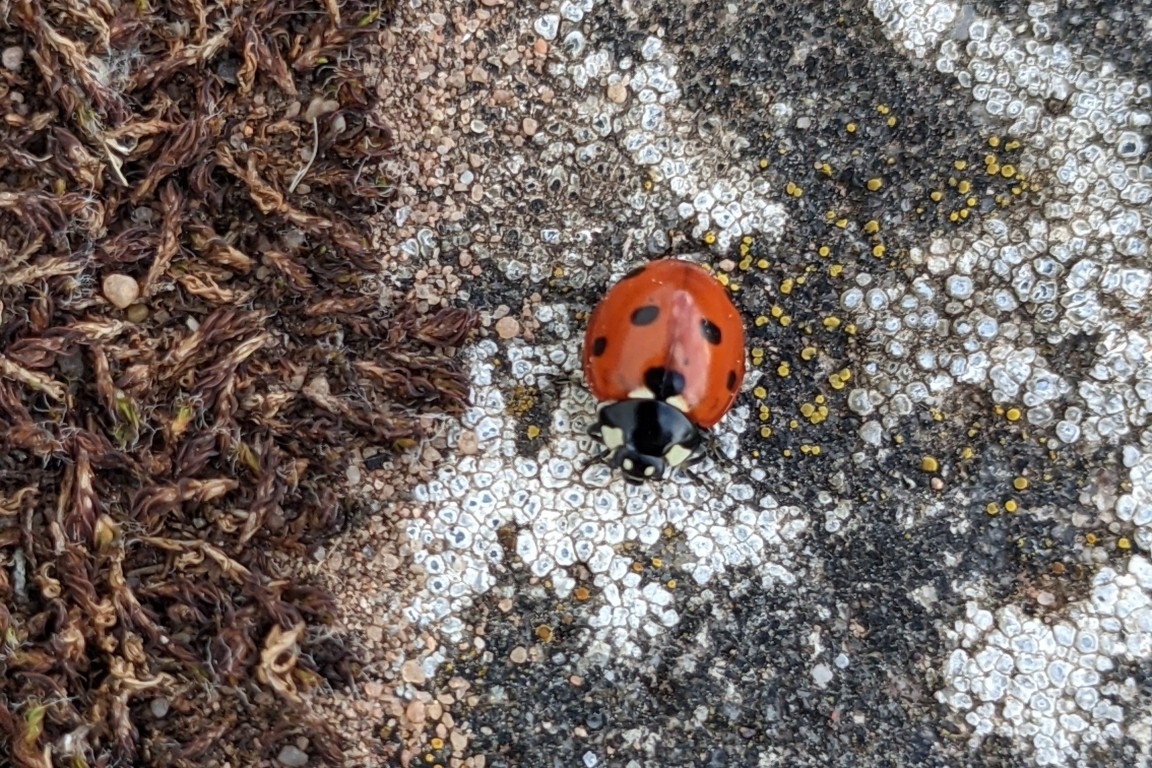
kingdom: Animalia
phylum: Arthropoda
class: Insecta
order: Coleoptera
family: Coccinellidae
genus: Coccinella
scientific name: Coccinella septempunctata
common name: Sevenspotted lady beetle
